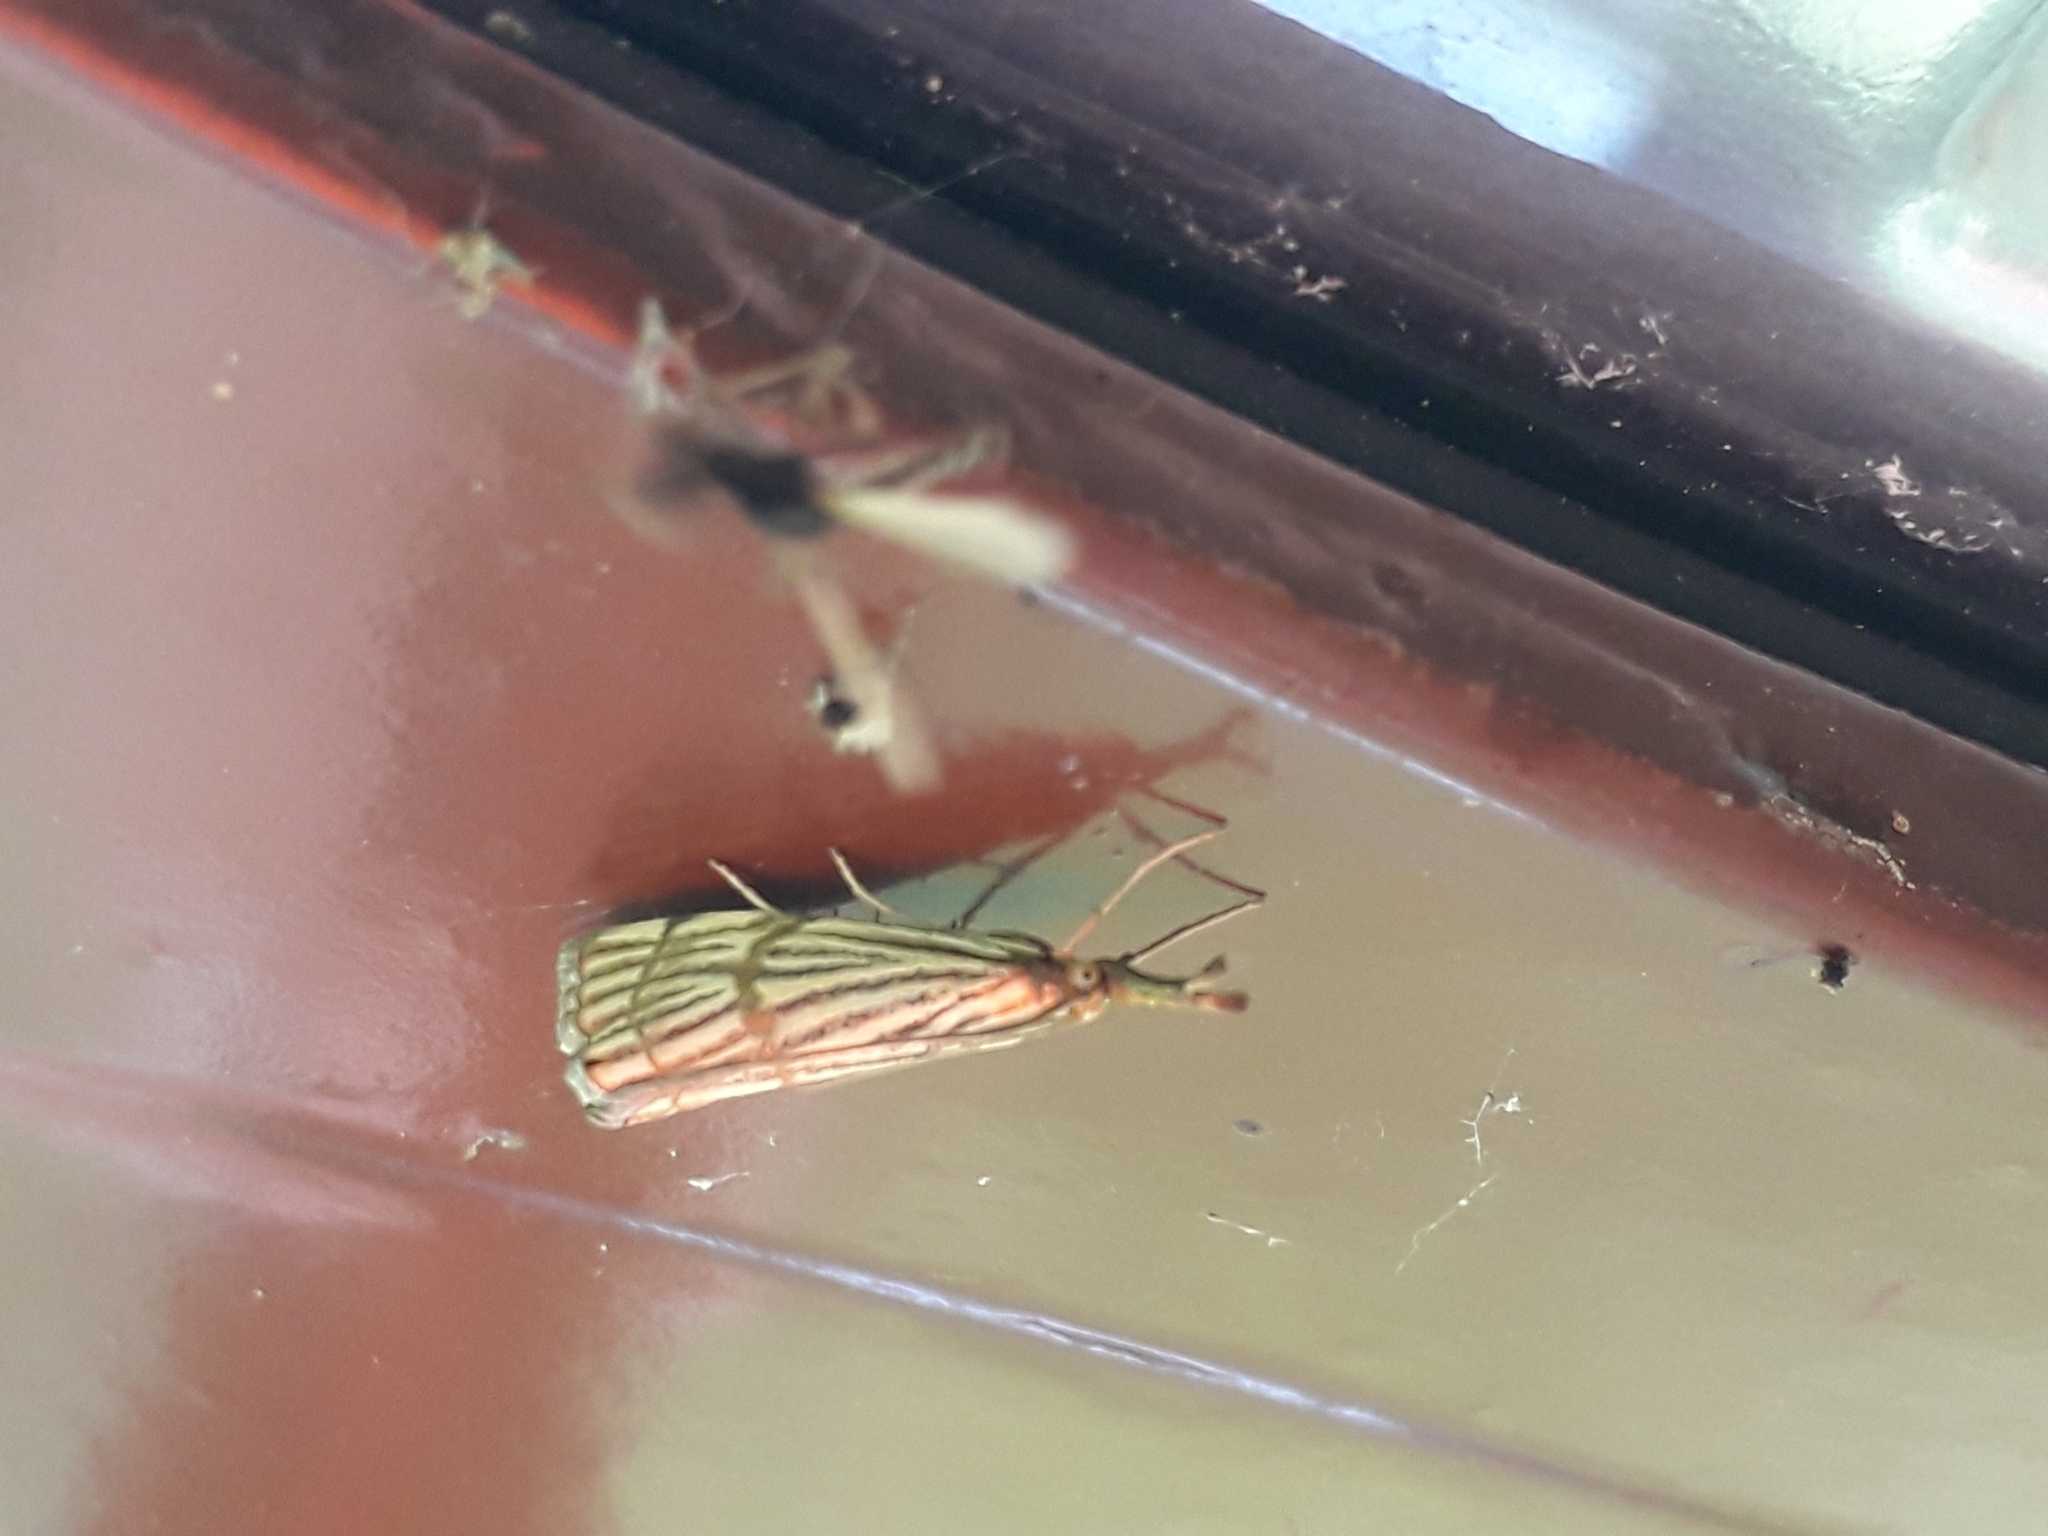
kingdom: Animalia
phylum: Arthropoda
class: Insecta
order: Lepidoptera
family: Crambidae
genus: Chrysocrambus
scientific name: Chrysocrambus linetella
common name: Orange-bar grass-veneer
